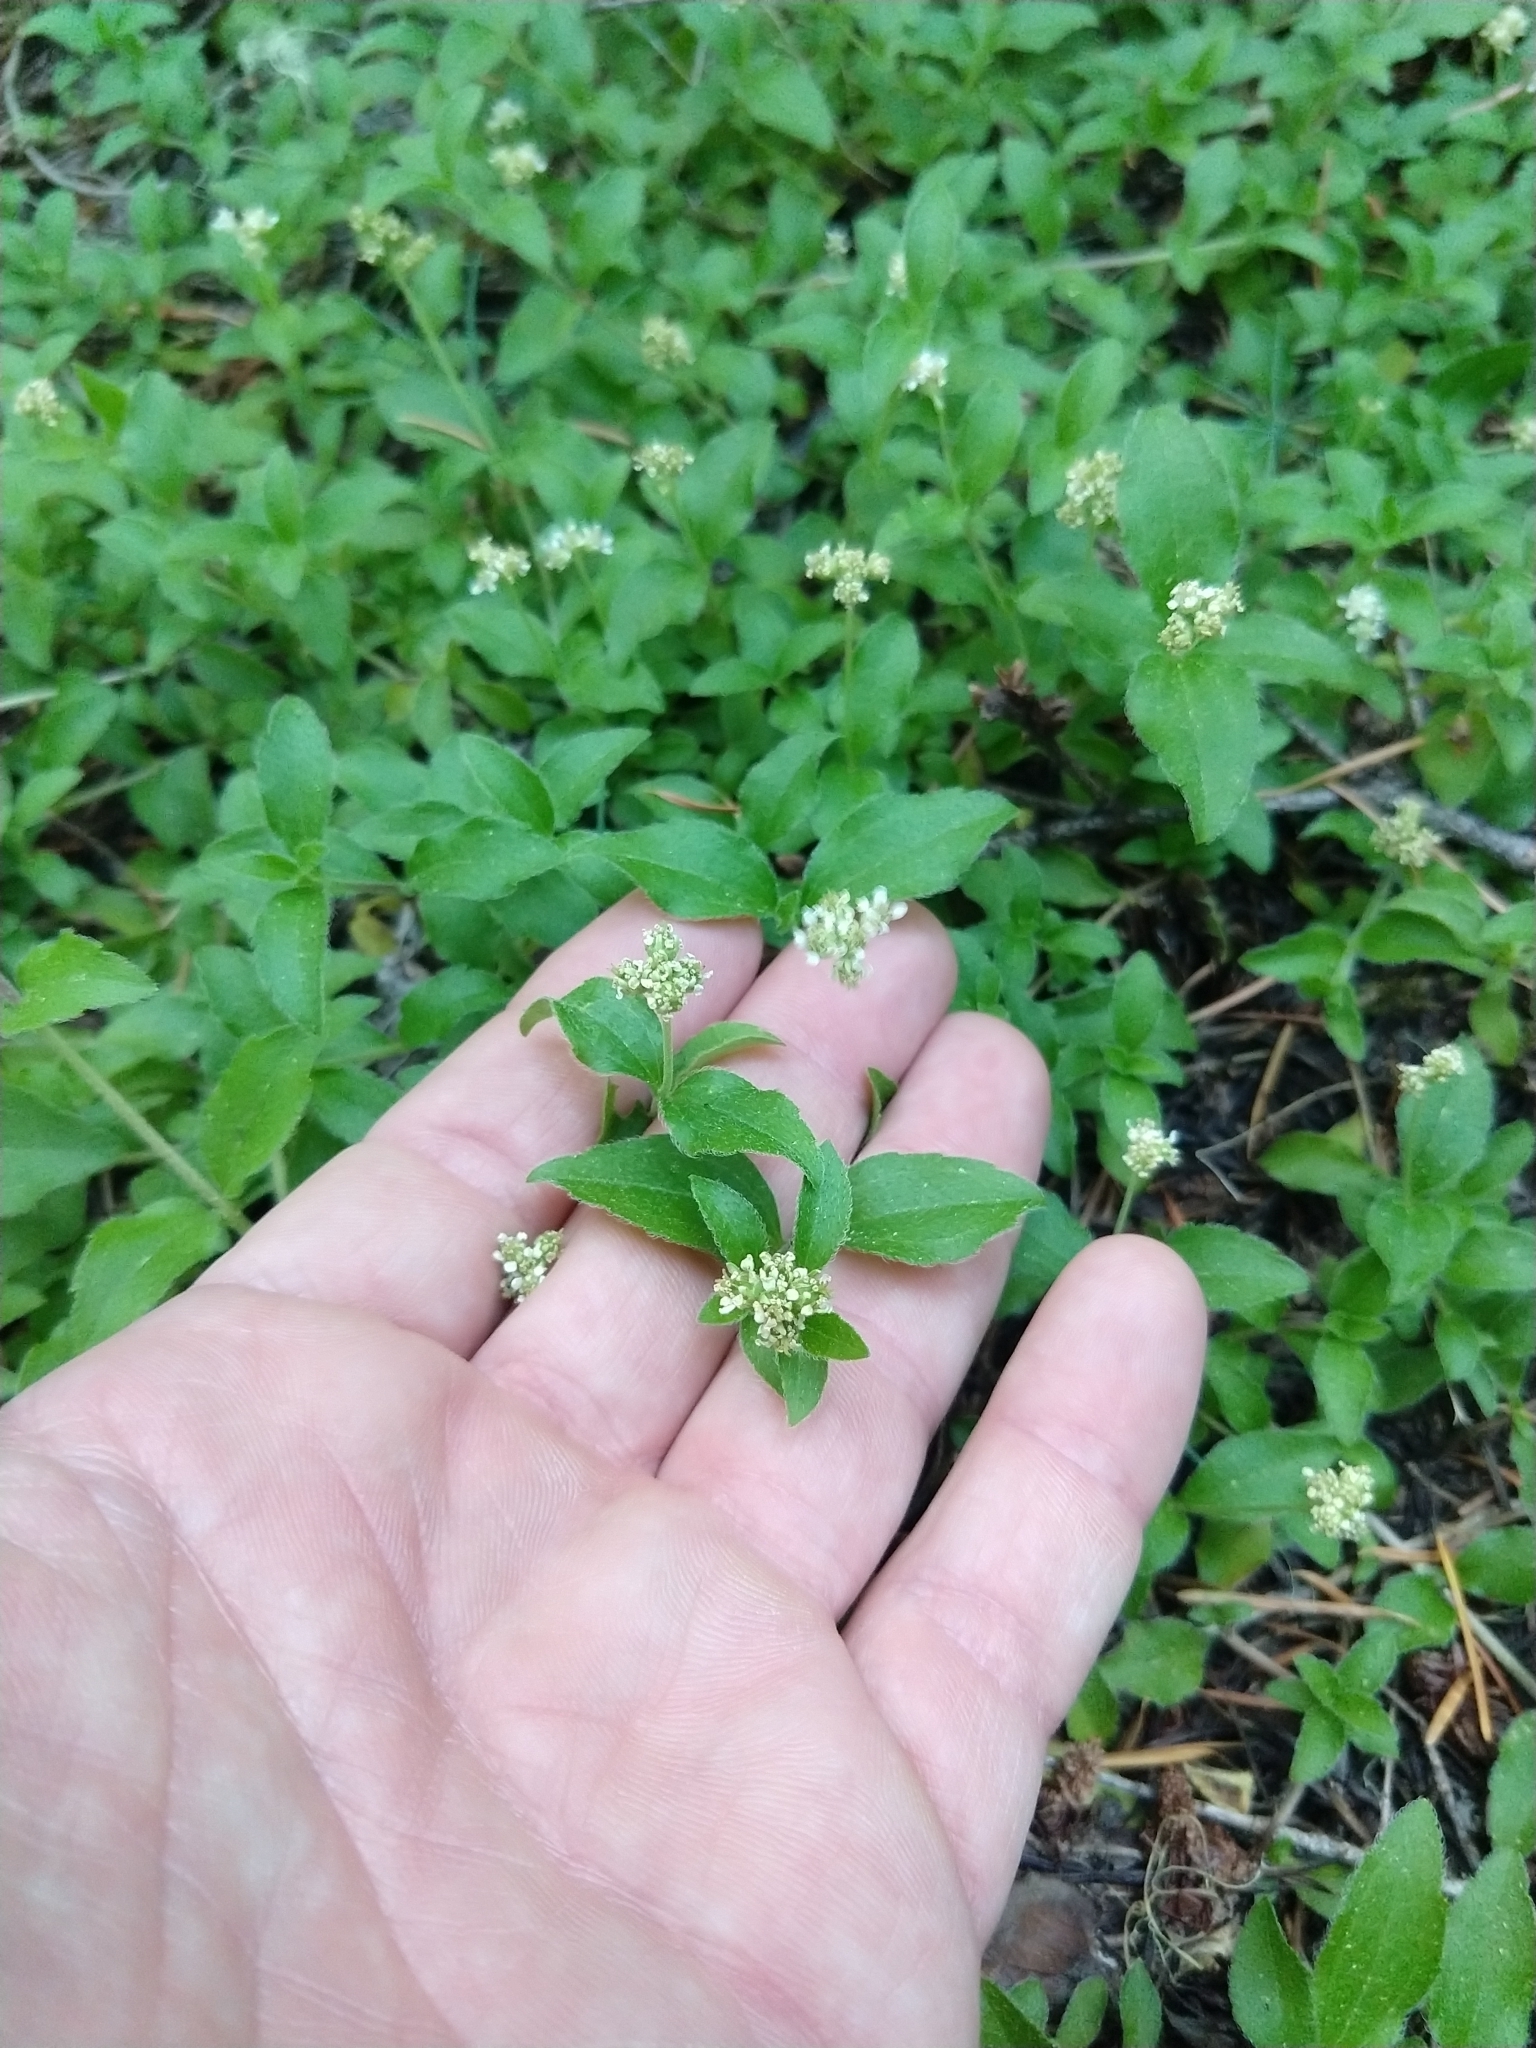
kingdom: Plantae
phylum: Tracheophyta
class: Magnoliopsida
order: Cornales
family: Hydrangeaceae
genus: Whipplea
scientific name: Whipplea modesta
